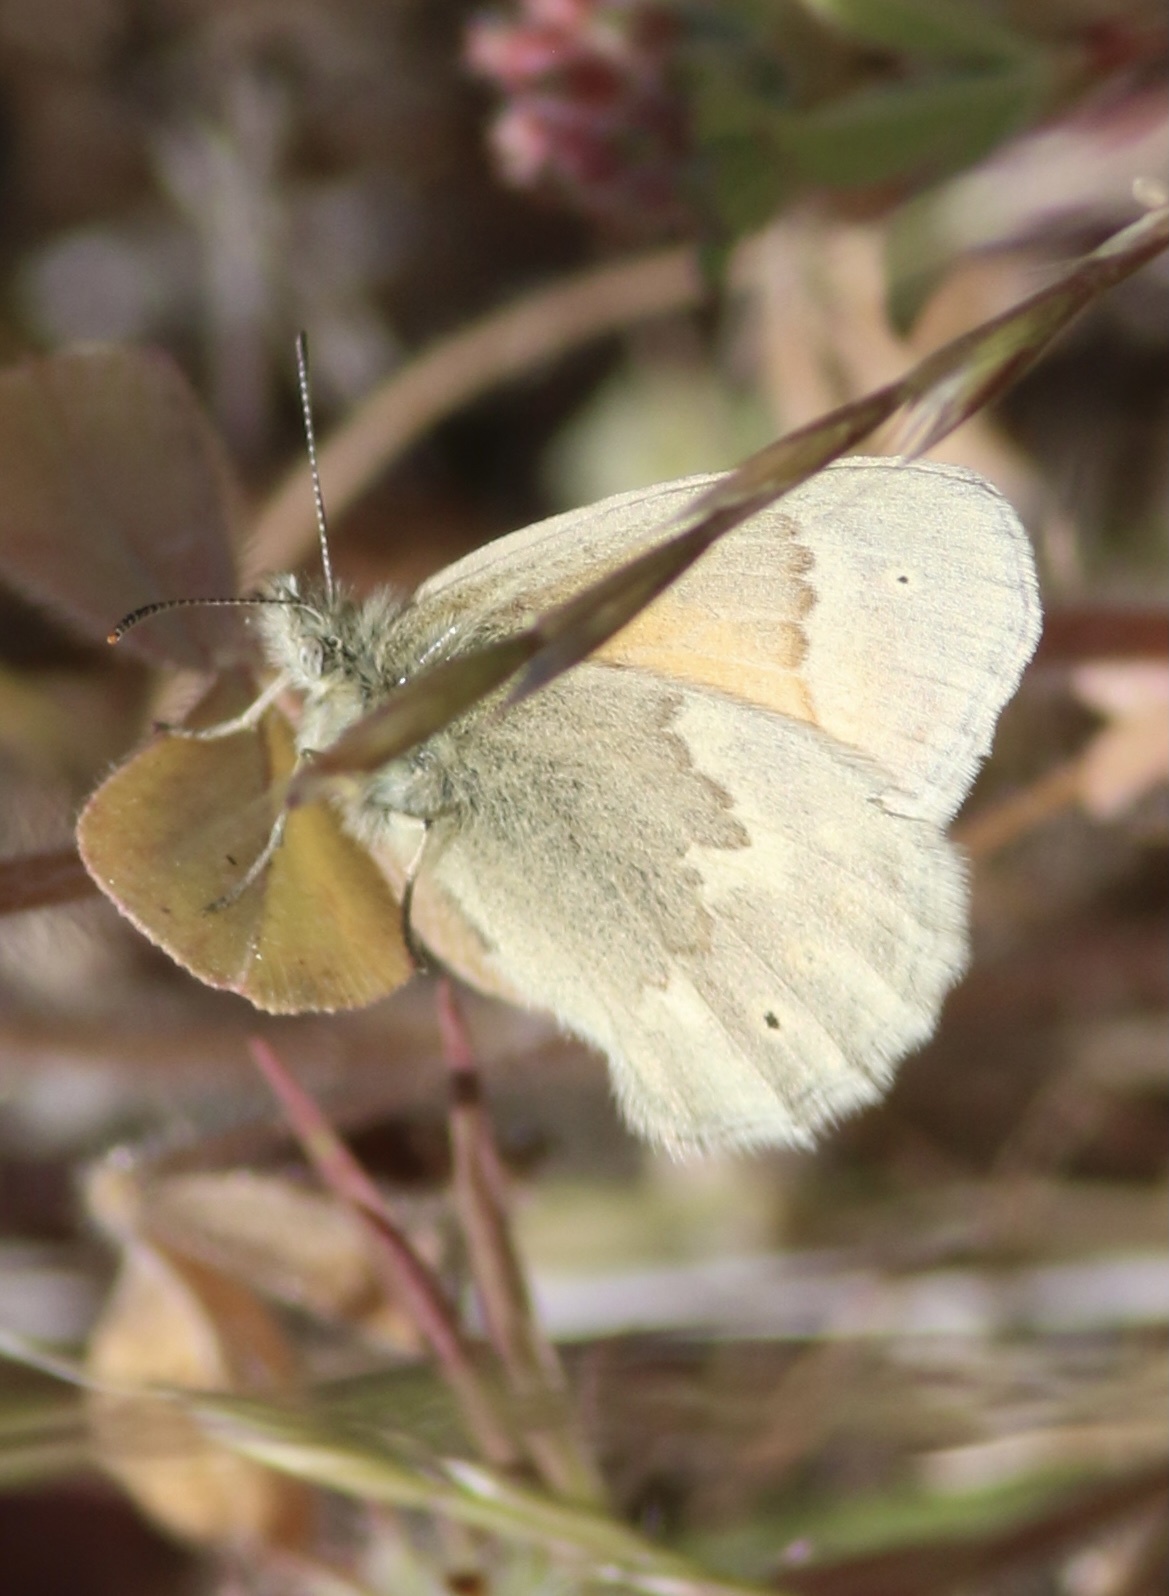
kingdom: Animalia
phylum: Arthropoda
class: Insecta
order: Lepidoptera
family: Nymphalidae
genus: Coenonympha
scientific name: Coenonympha california
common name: Common ringlet
